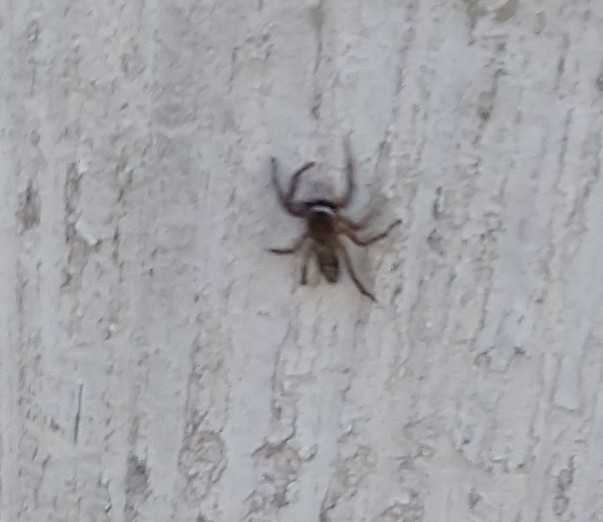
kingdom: Animalia
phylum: Arthropoda
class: Arachnida
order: Araneae
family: Salticidae
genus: Platycryptus
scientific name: Platycryptus undatus
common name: Tan jumping spider
